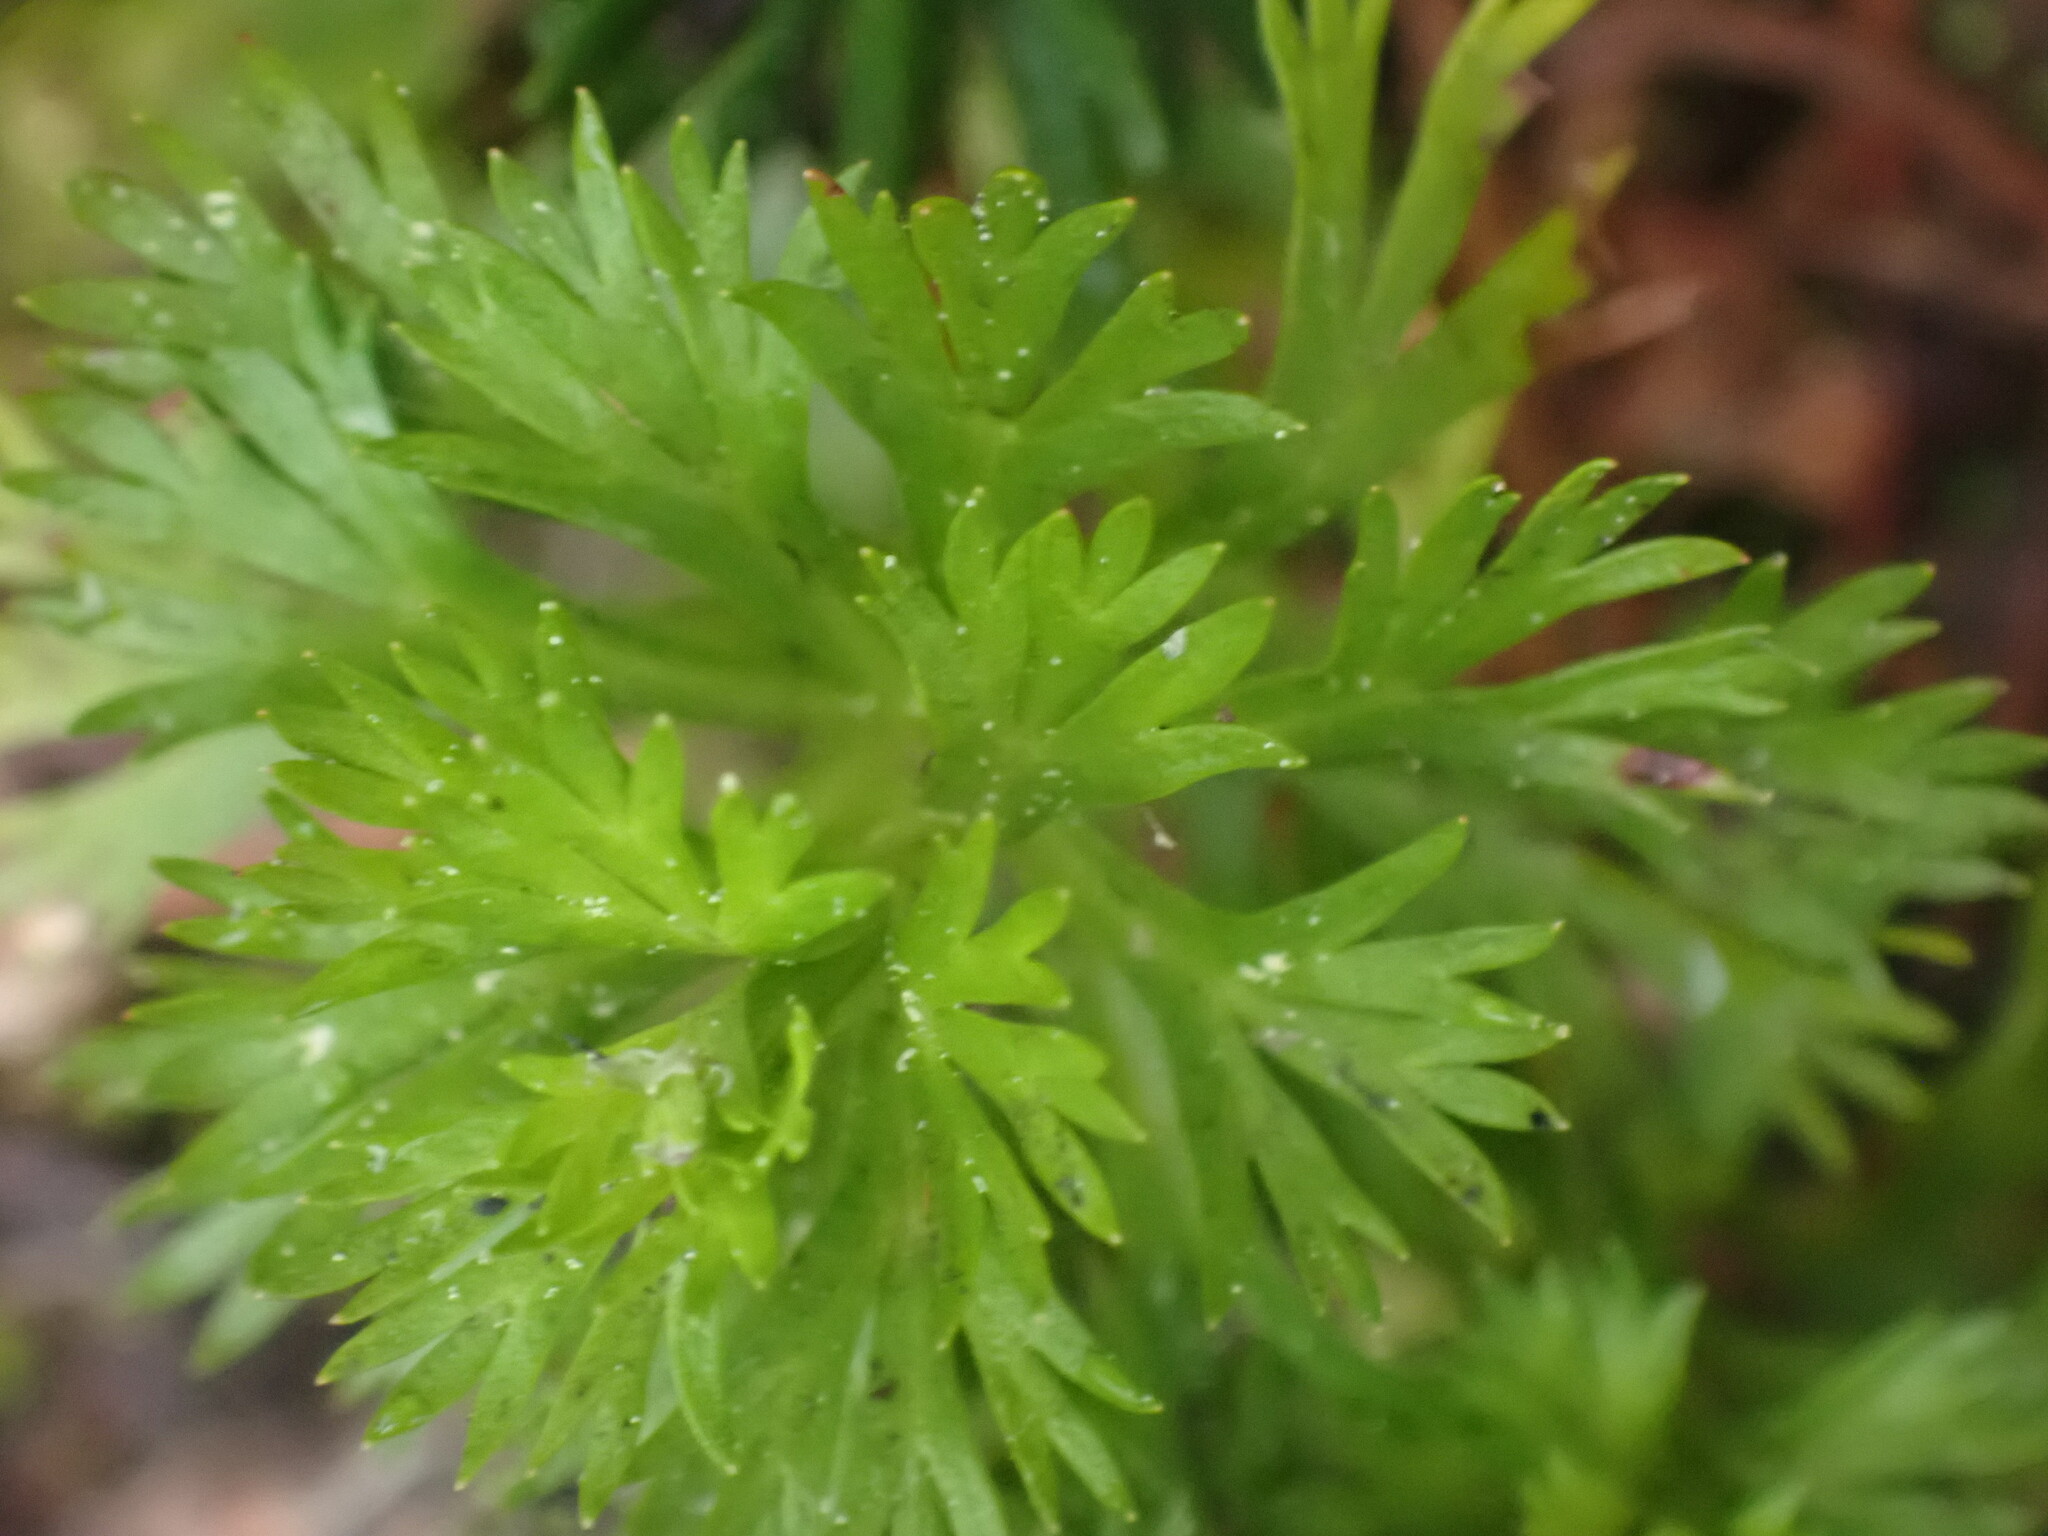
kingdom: Plantae
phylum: Tracheophyta
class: Magnoliopsida
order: Rosales
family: Rosaceae
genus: Luetkea
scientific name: Luetkea pectinata
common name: Partridgefoot
